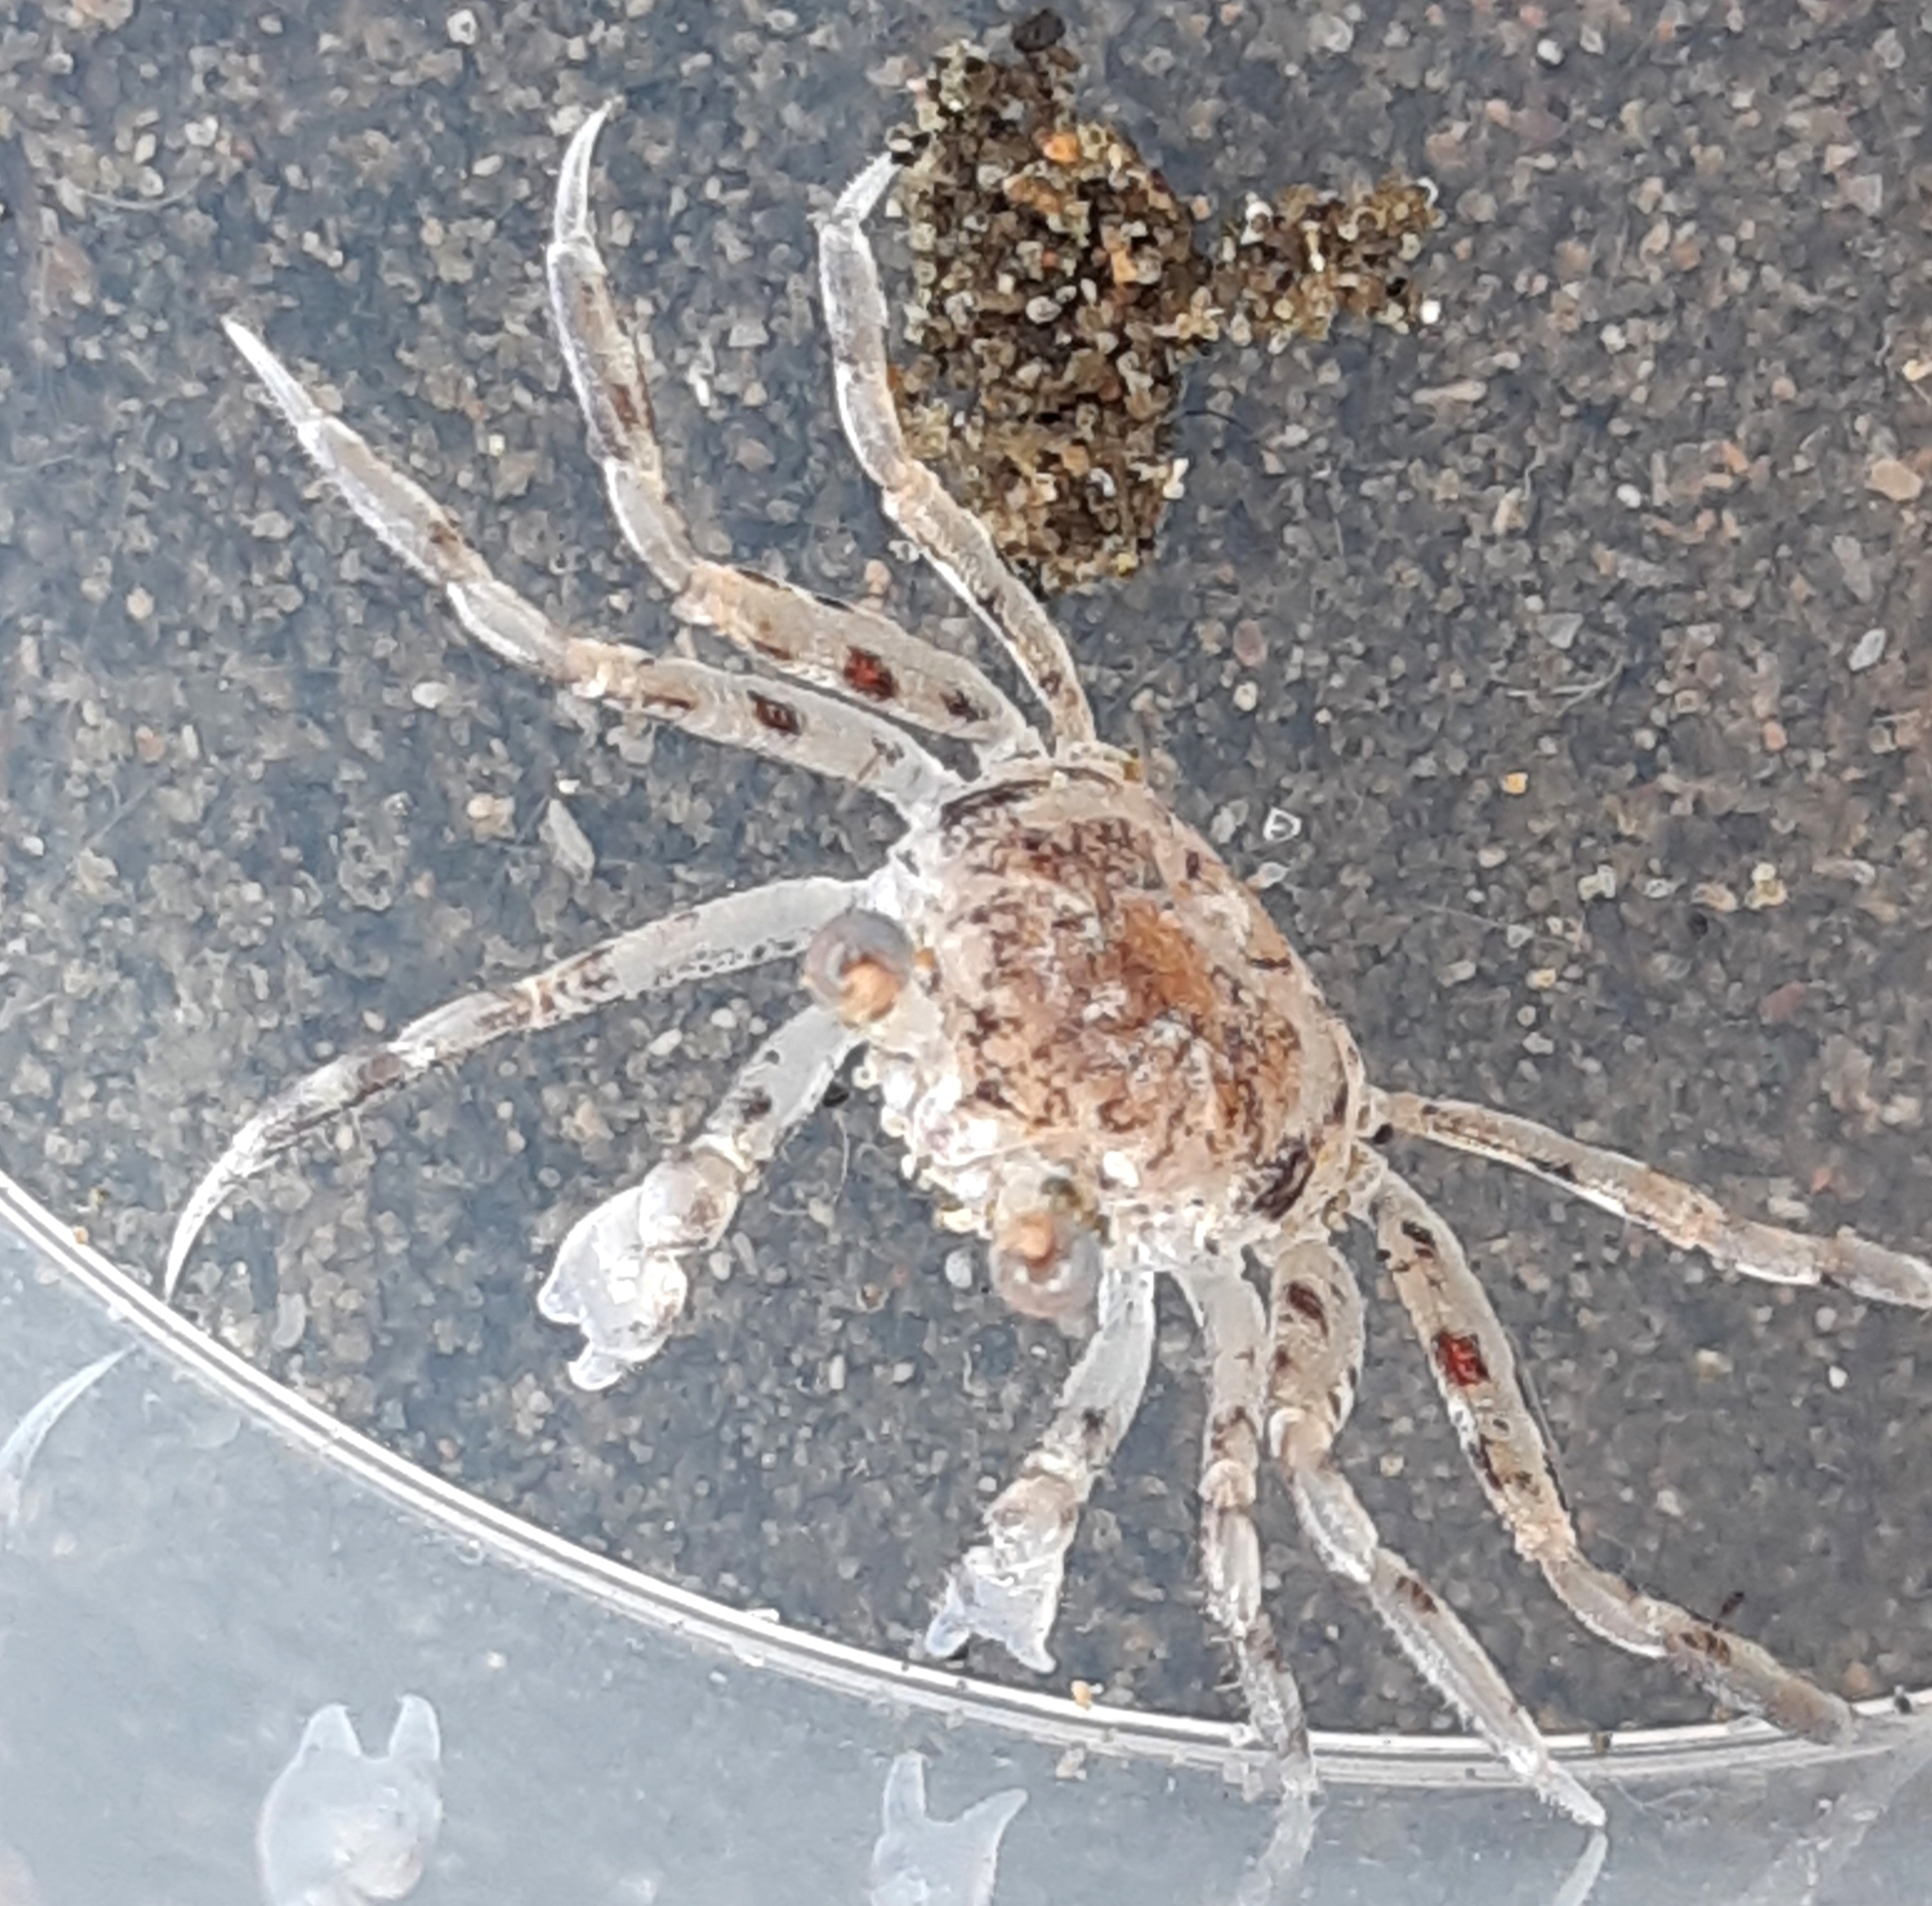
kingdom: Animalia
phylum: Arthropoda
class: Malacostraca
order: Decapoda
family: Ocypodidae
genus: Ocypode
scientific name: Ocypode cursor
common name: Tufted ghost crab
